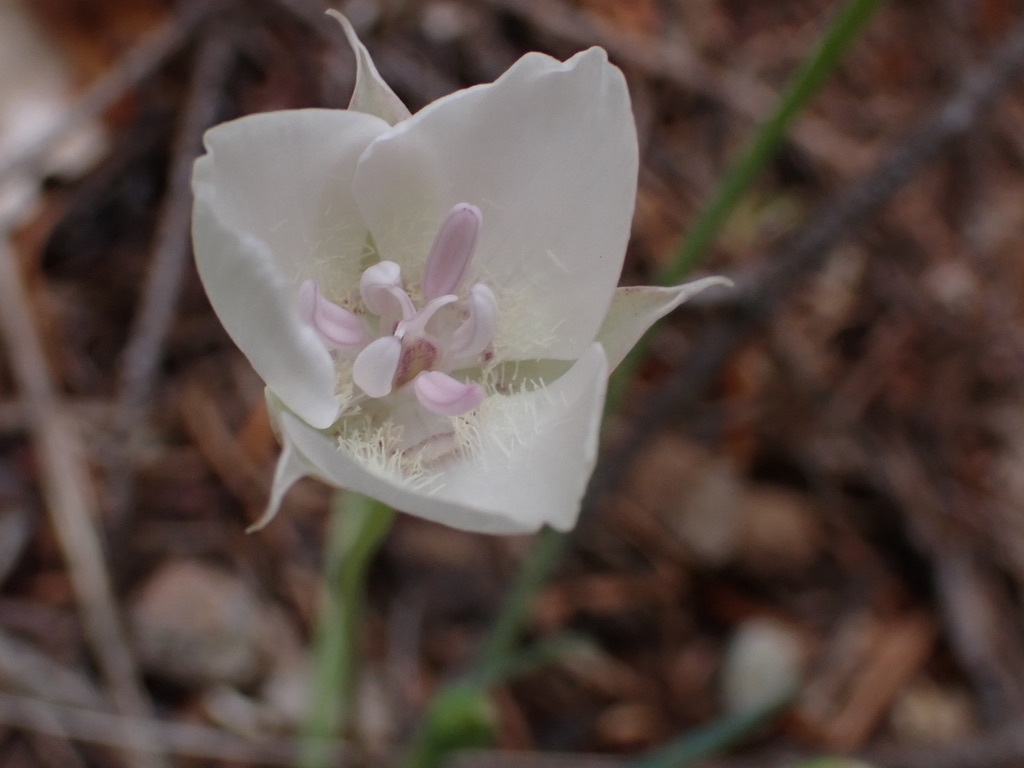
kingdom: Plantae
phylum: Tracheophyta
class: Liliopsida
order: Liliales
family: Liliaceae
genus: Calochortus
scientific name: Calochortus umbellatus
